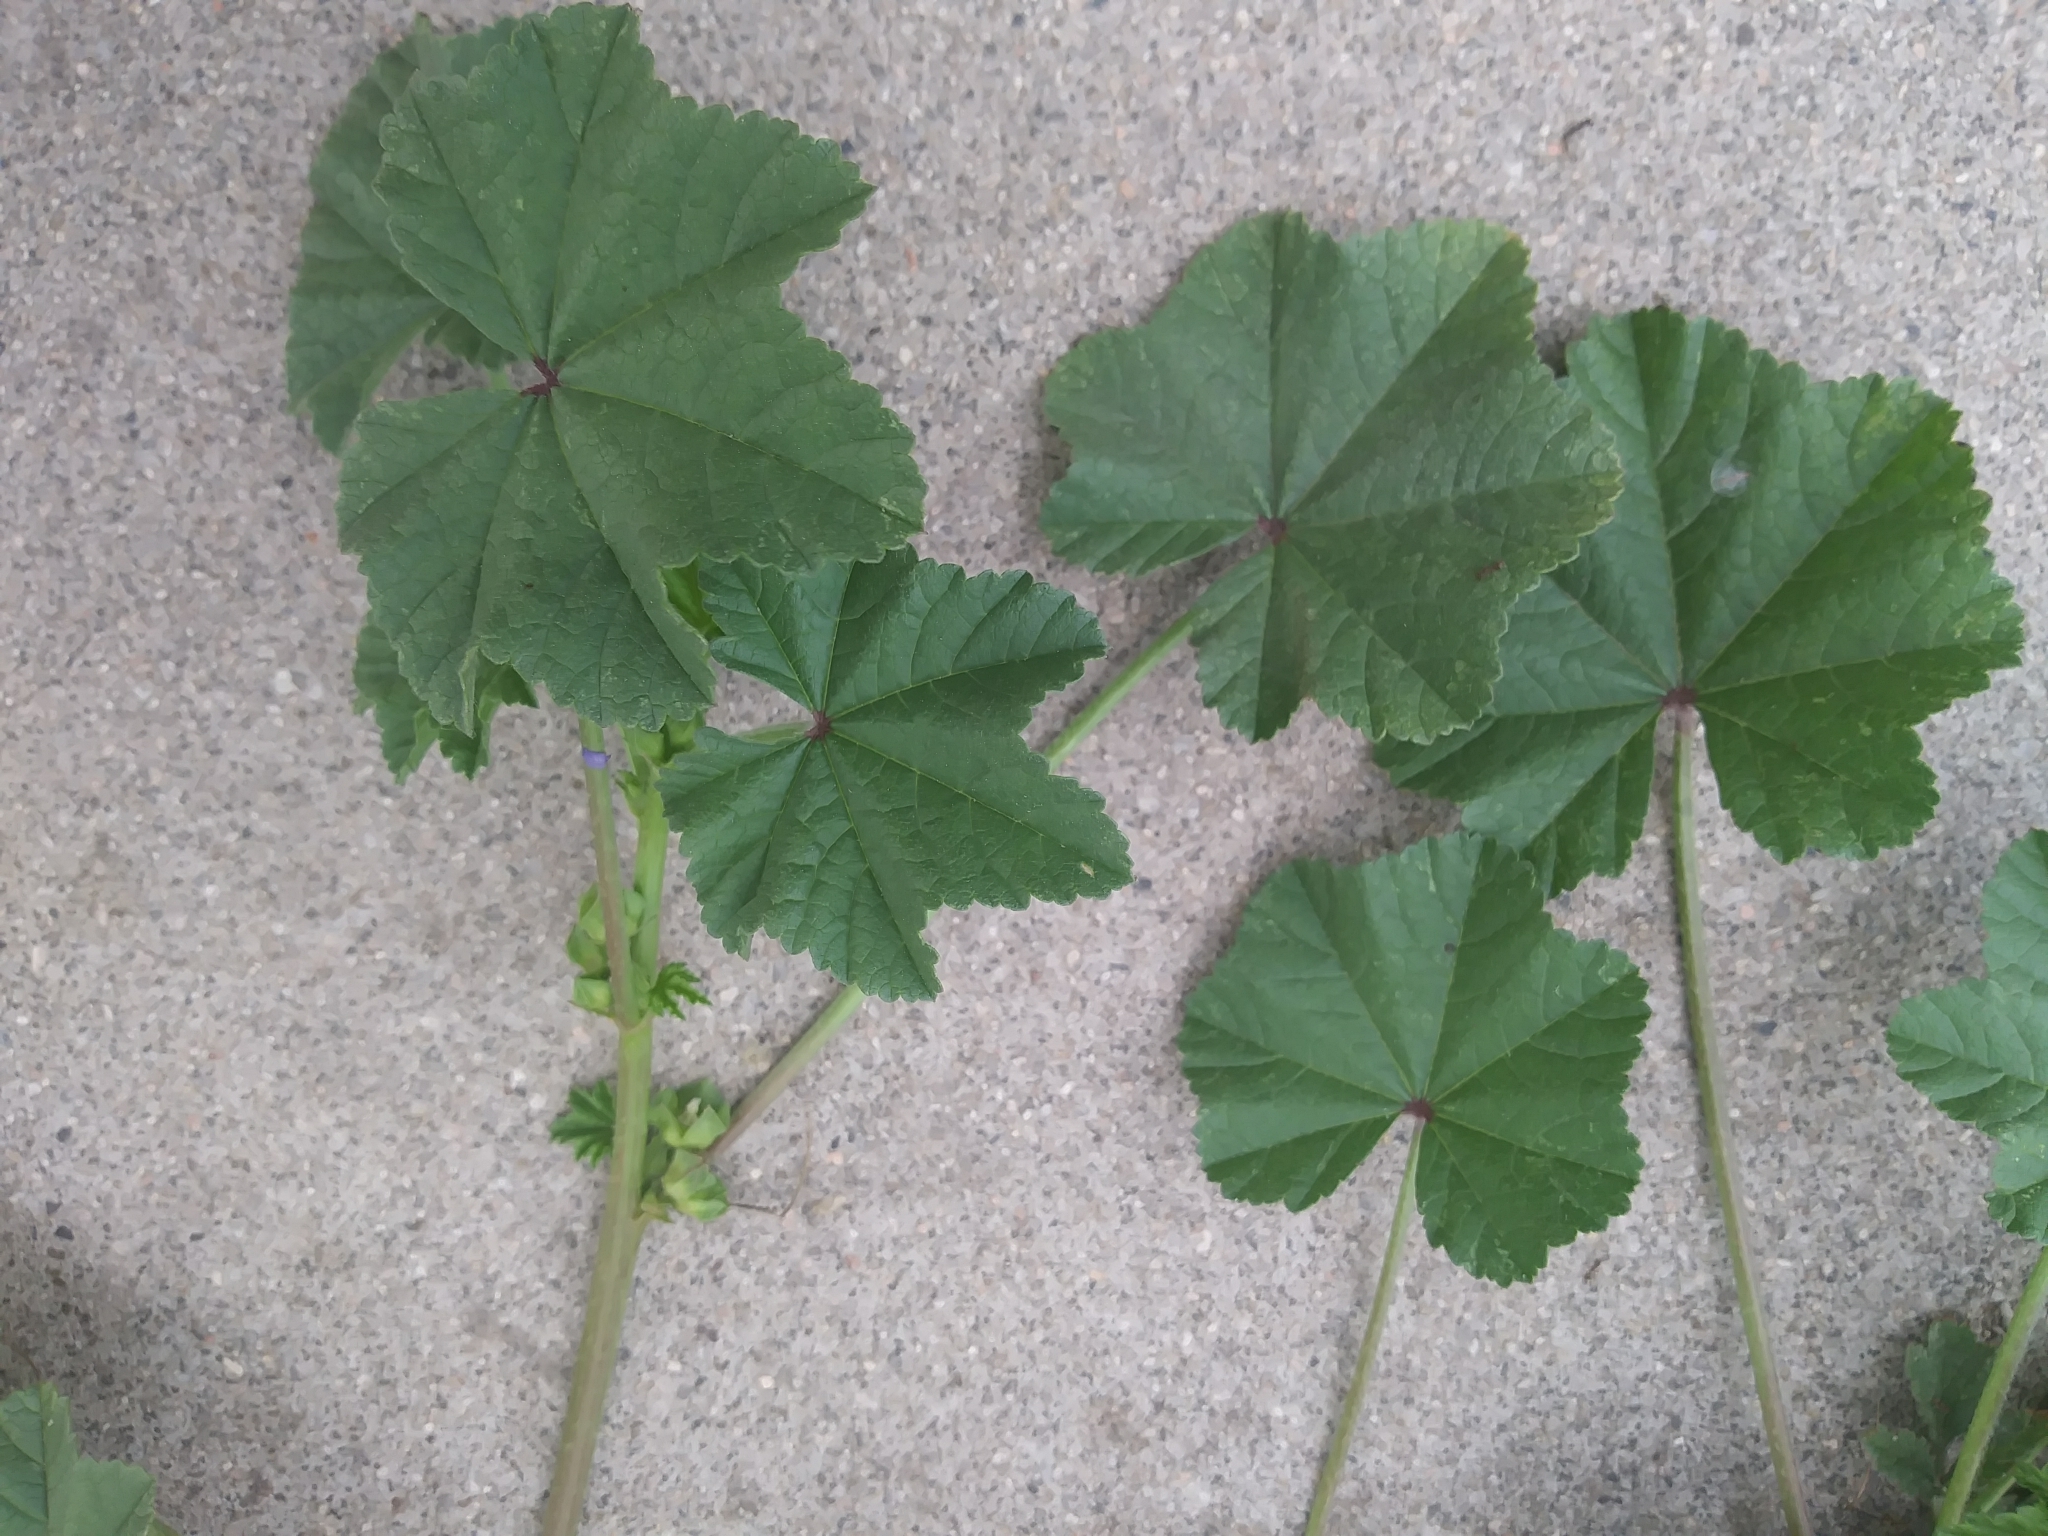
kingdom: Plantae
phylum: Tracheophyta
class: Magnoliopsida
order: Malvales
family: Malvaceae
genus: Malva
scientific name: Malva parviflora
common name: Least mallow
